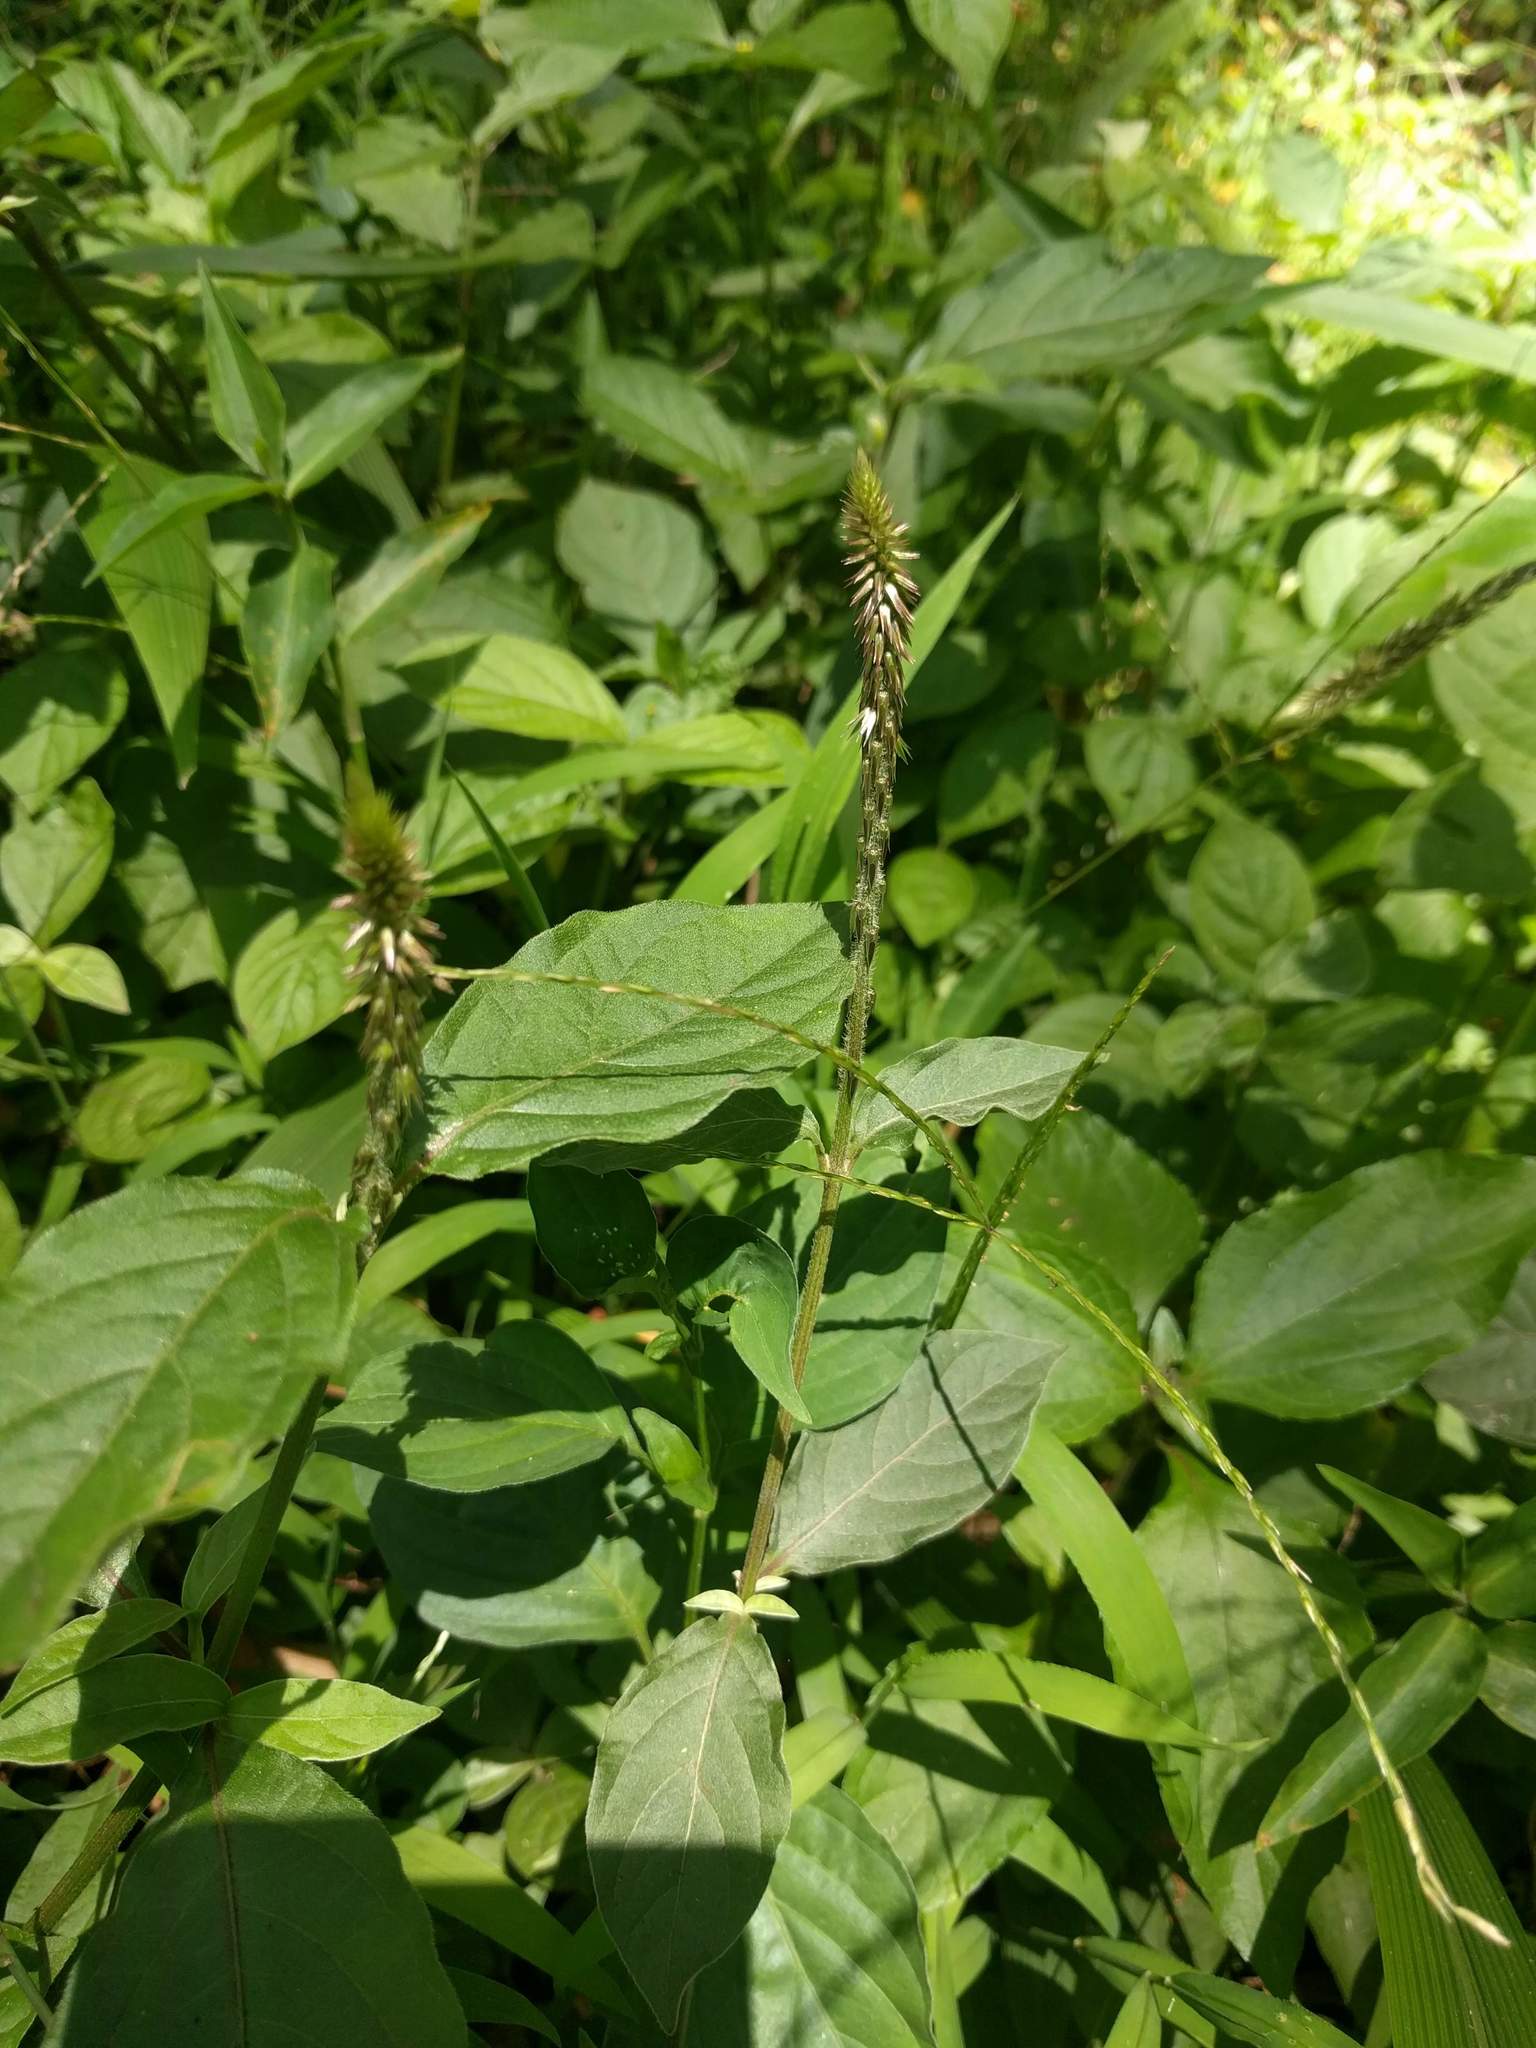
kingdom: Plantae
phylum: Tracheophyta
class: Magnoliopsida
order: Caryophyllales
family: Amaranthaceae
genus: Achyranthes
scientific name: Achyranthes aspera
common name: Devil's horsewhip
